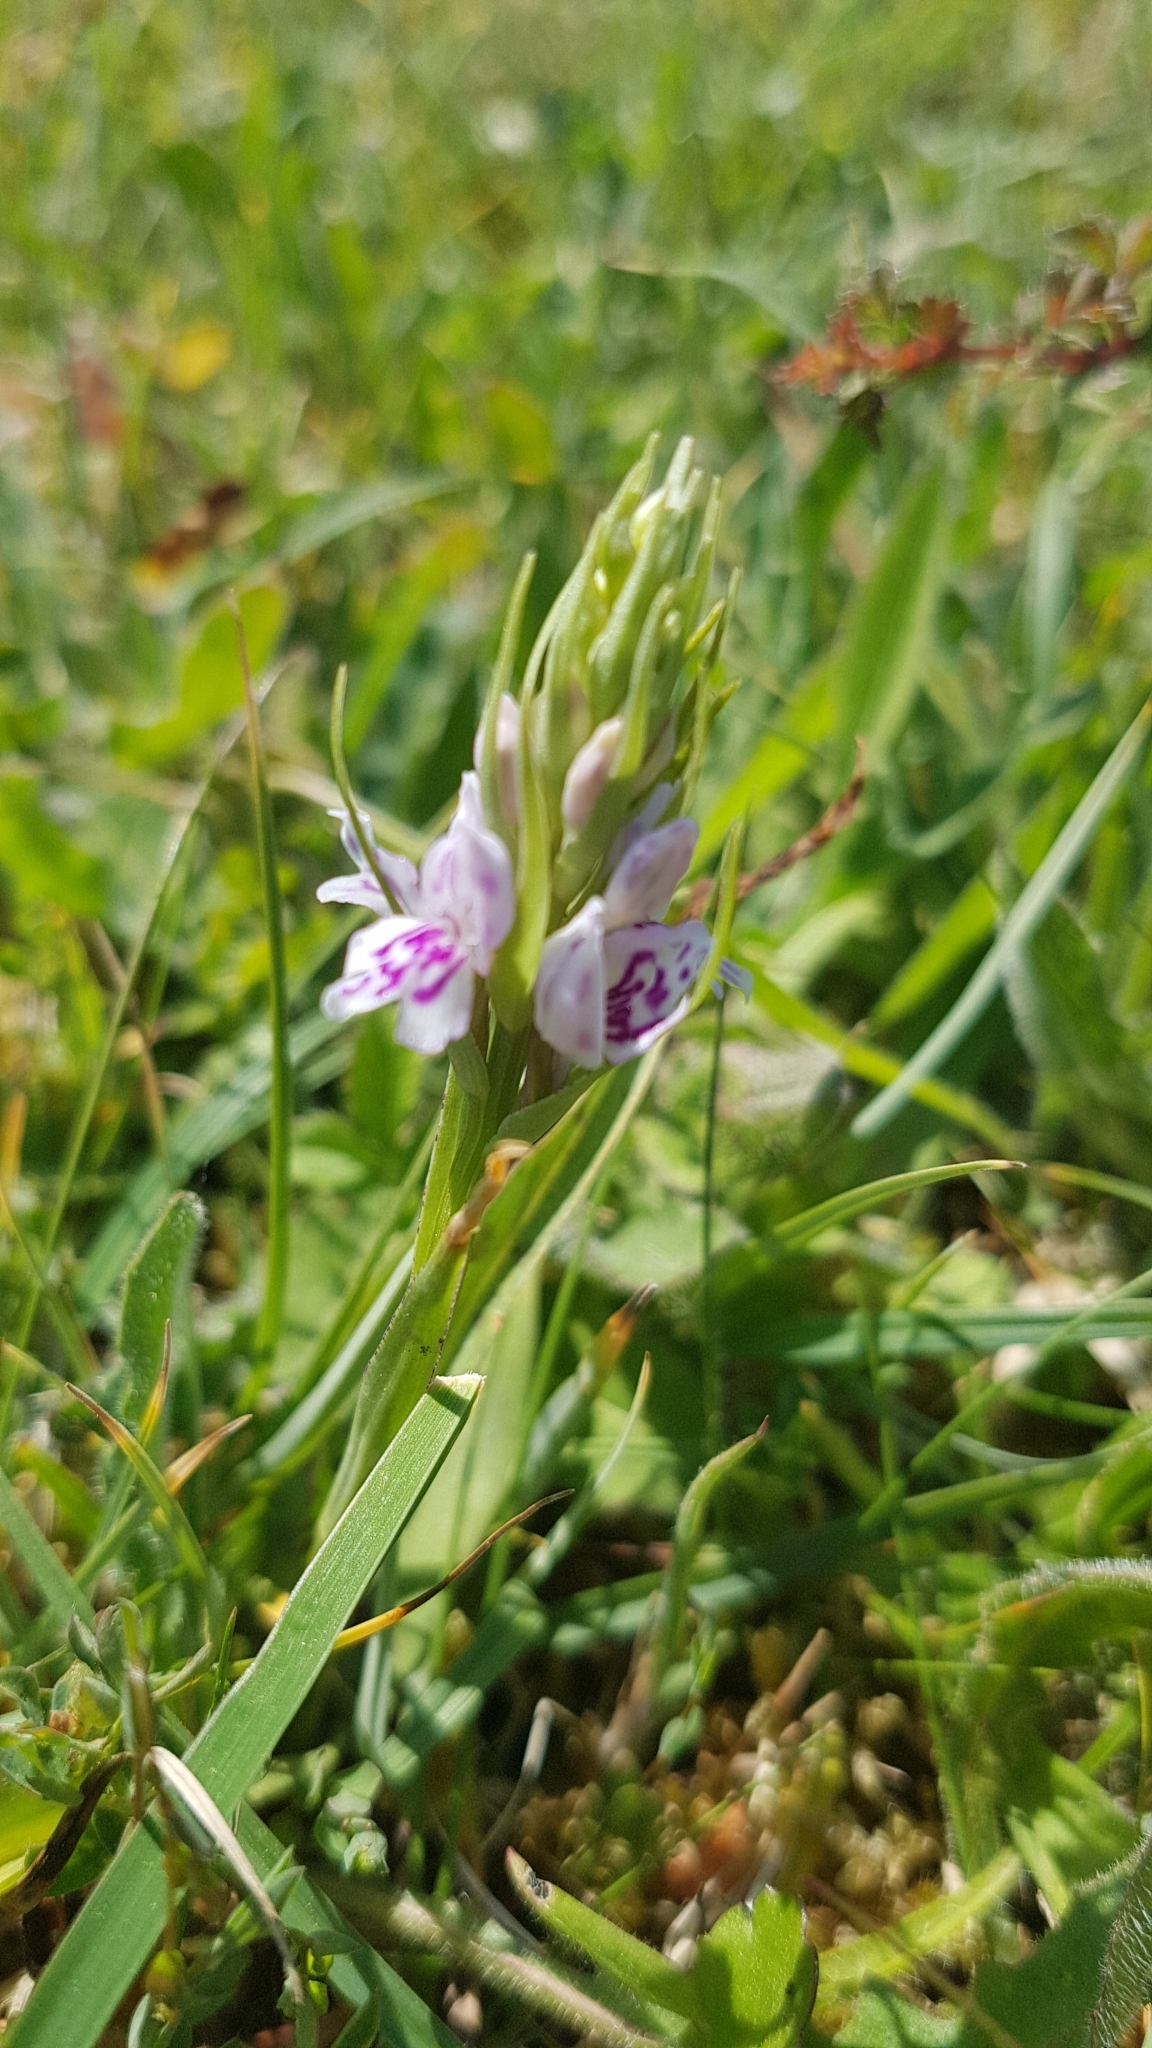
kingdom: Plantae
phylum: Tracheophyta
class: Liliopsida
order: Asparagales
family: Orchidaceae
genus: Dactylorhiza
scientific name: Dactylorhiza maculata
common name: Heath spotted-orchid
